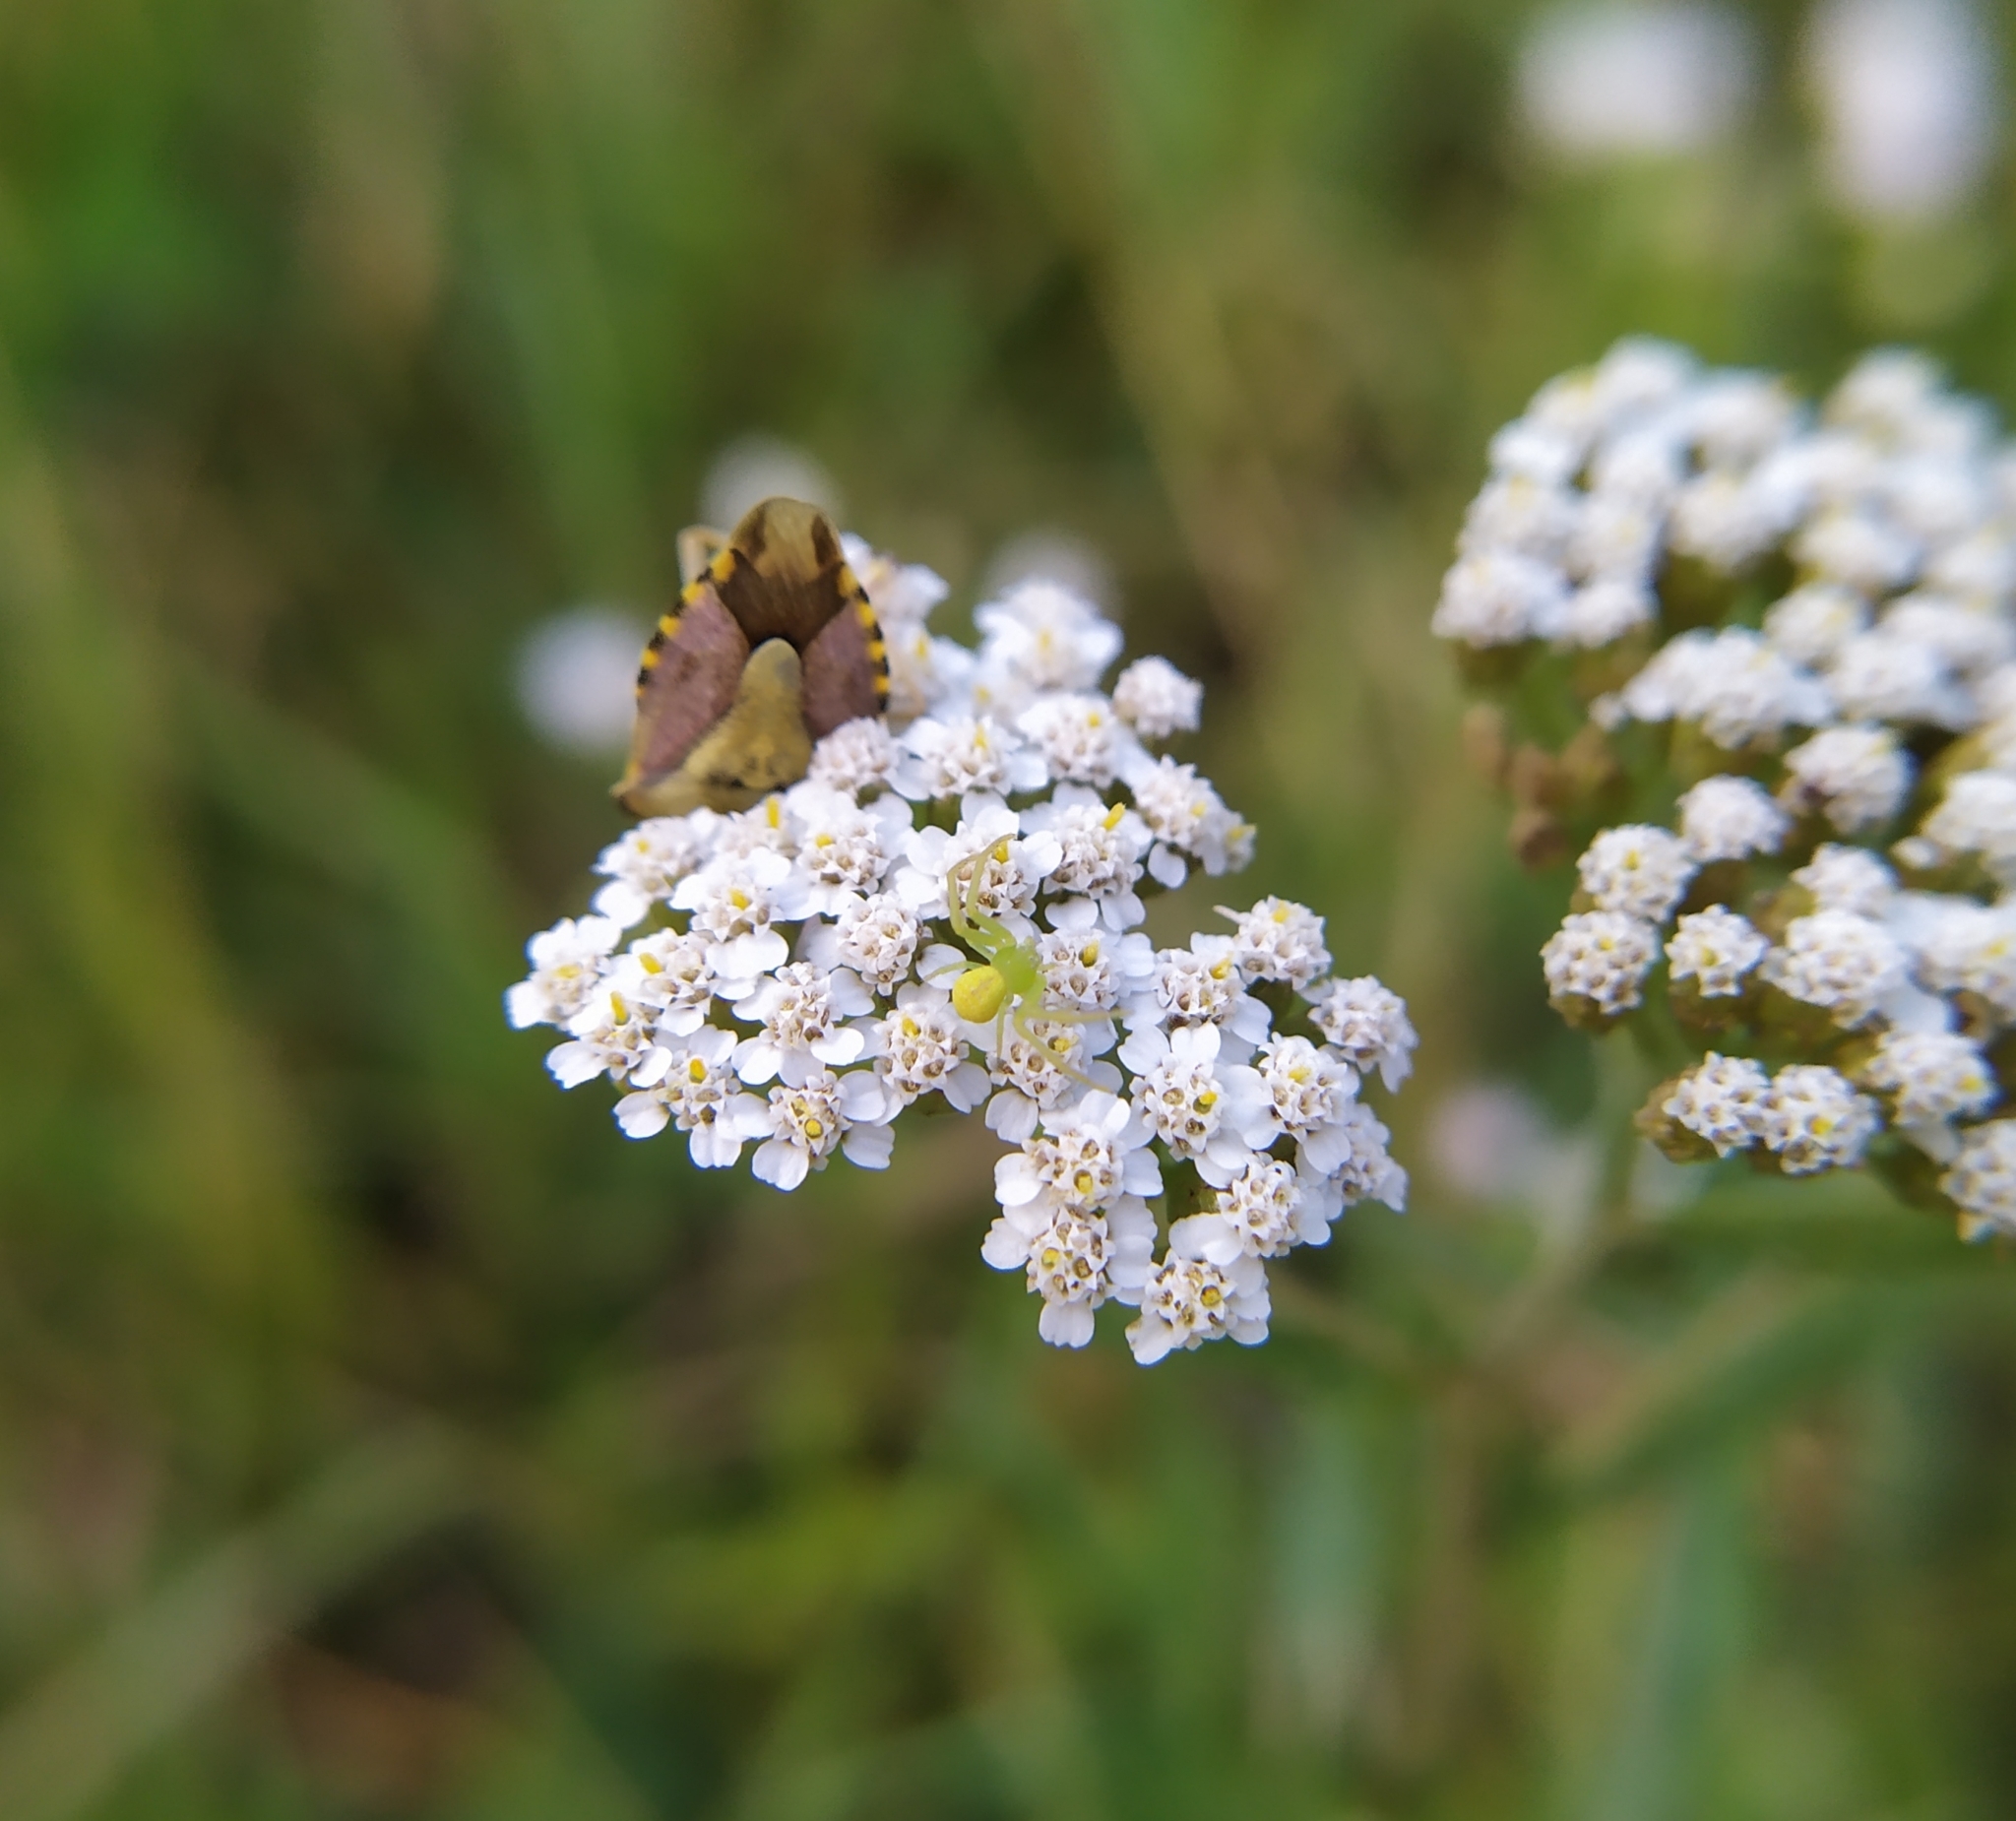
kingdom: Animalia
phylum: Arthropoda
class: Arachnida
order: Araneae
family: Thomisidae
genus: Ebrechtella
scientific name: Ebrechtella tricuspidata
